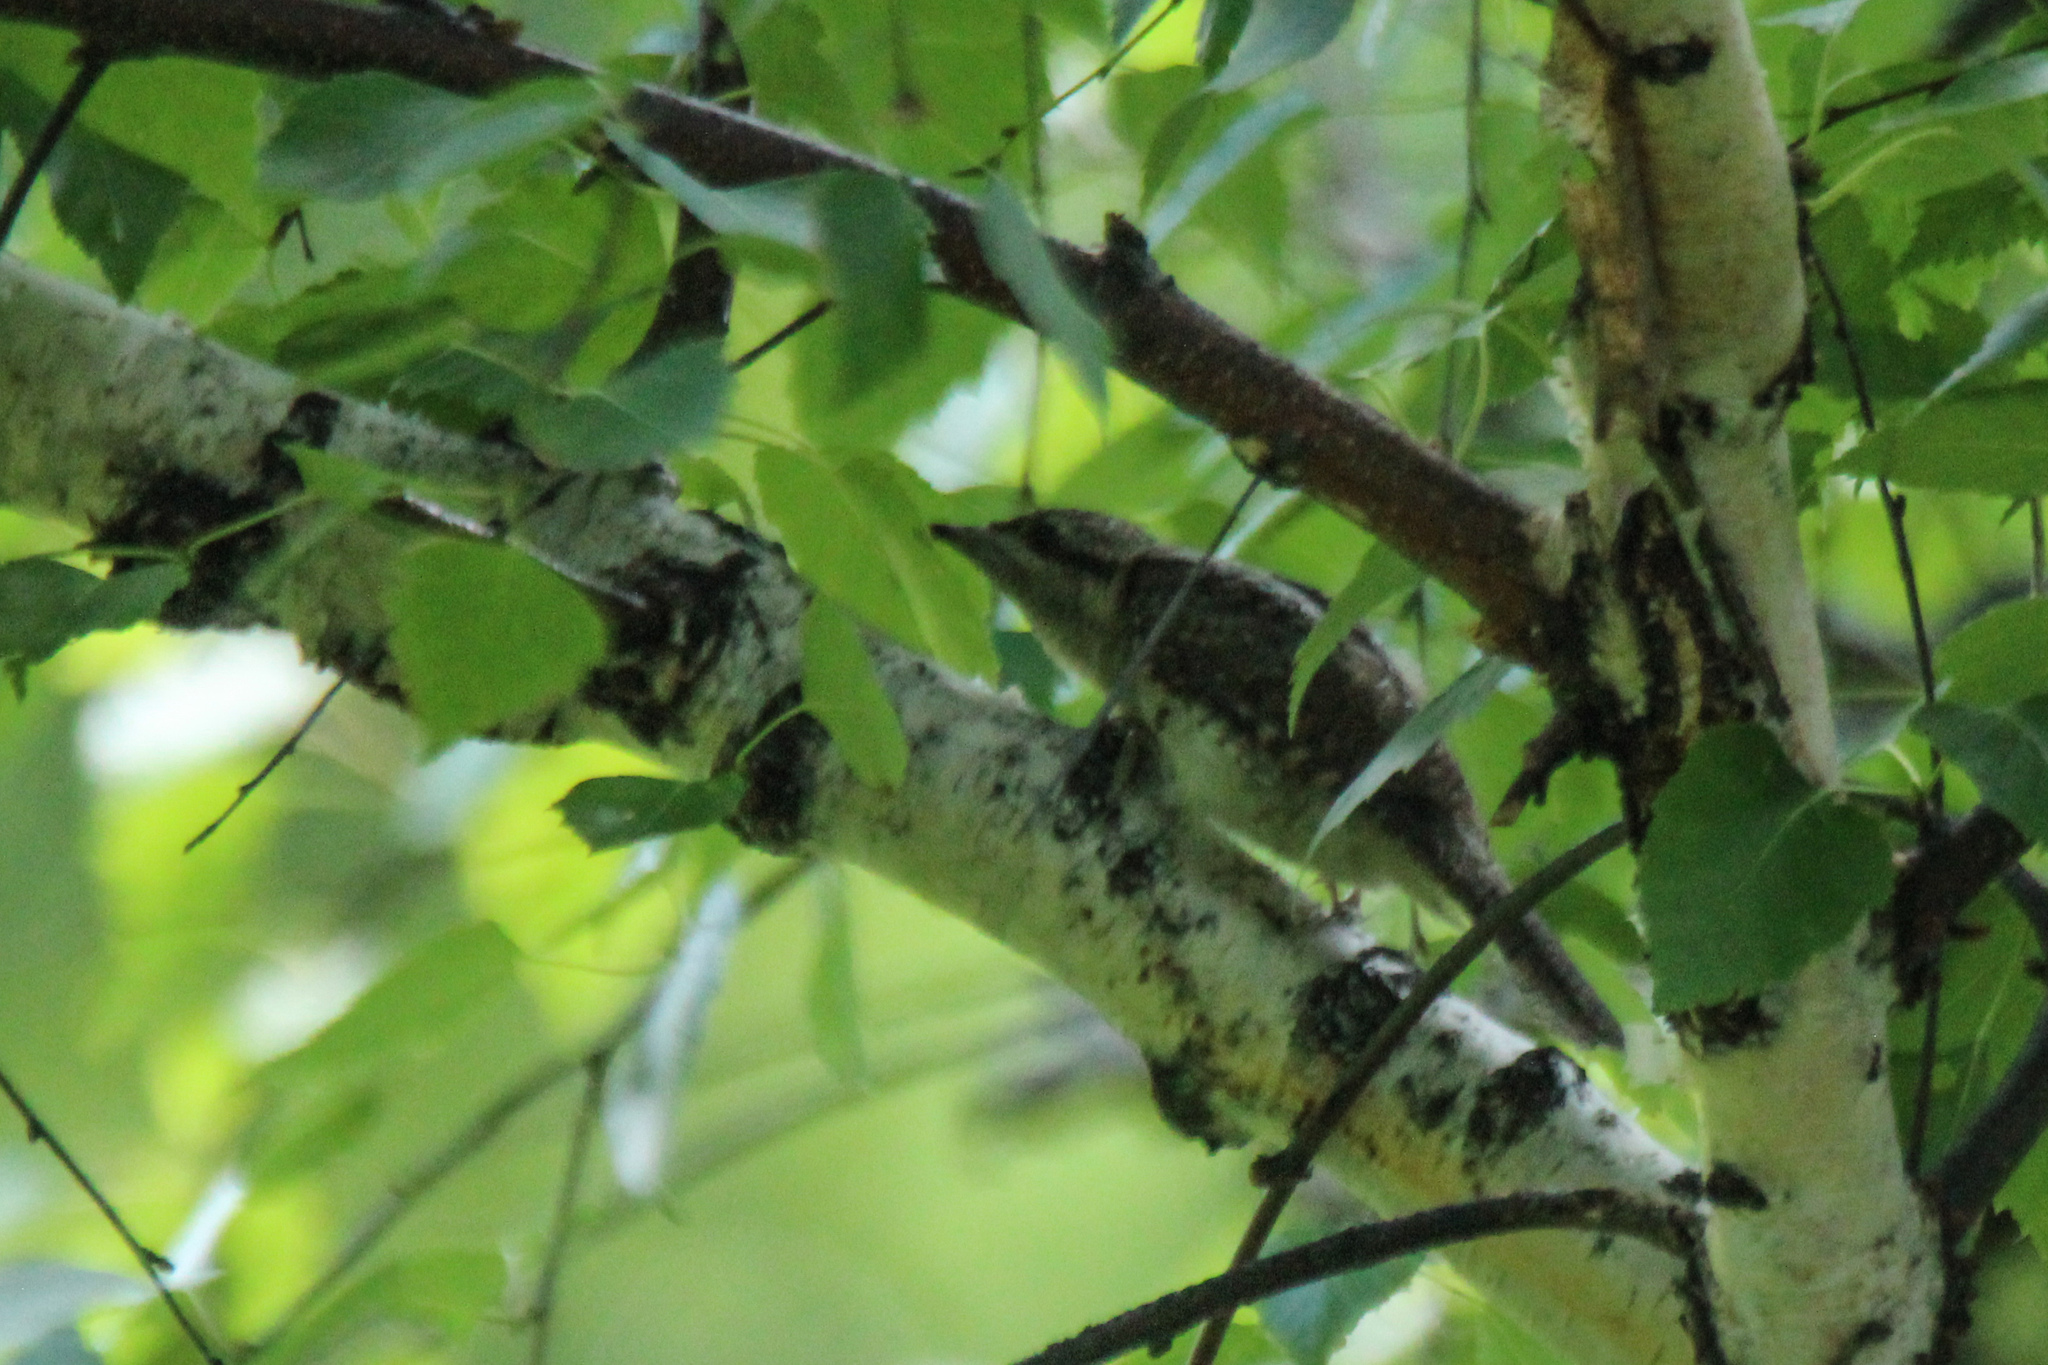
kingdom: Animalia
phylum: Chordata
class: Aves
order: Piciformes
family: Picidae
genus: Jynx
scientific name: Jynx torquilla
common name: Eurasian wryneck
